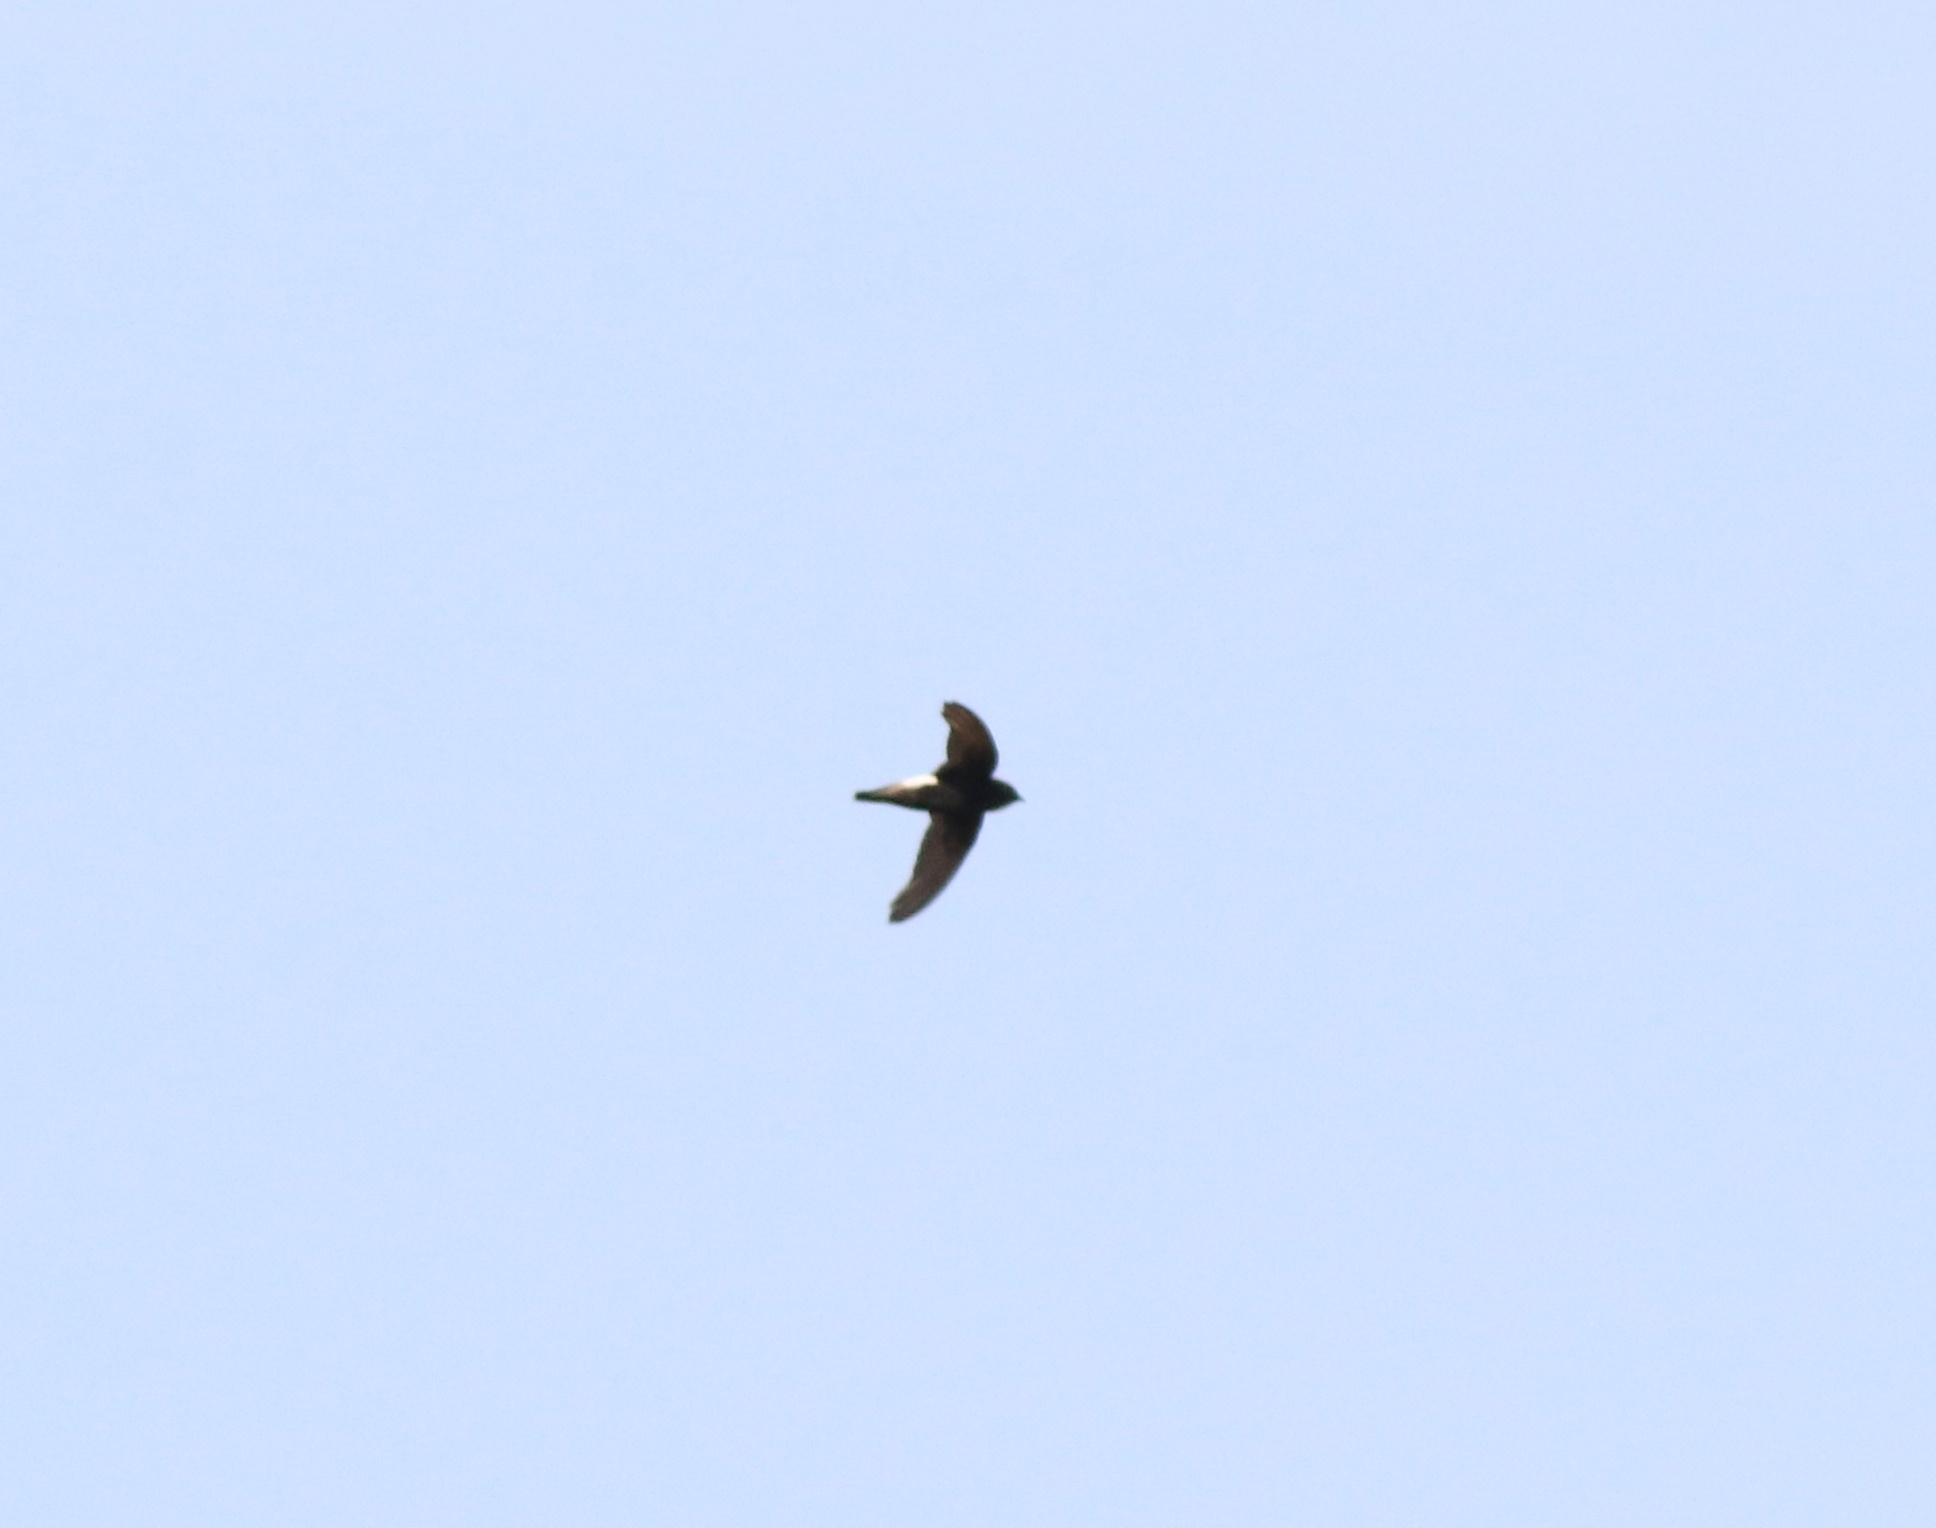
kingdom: Animalia
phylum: Chordata
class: Aves
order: Apodiformes
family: Apodidae
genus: Apus
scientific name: Apus affinis
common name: Little swift
